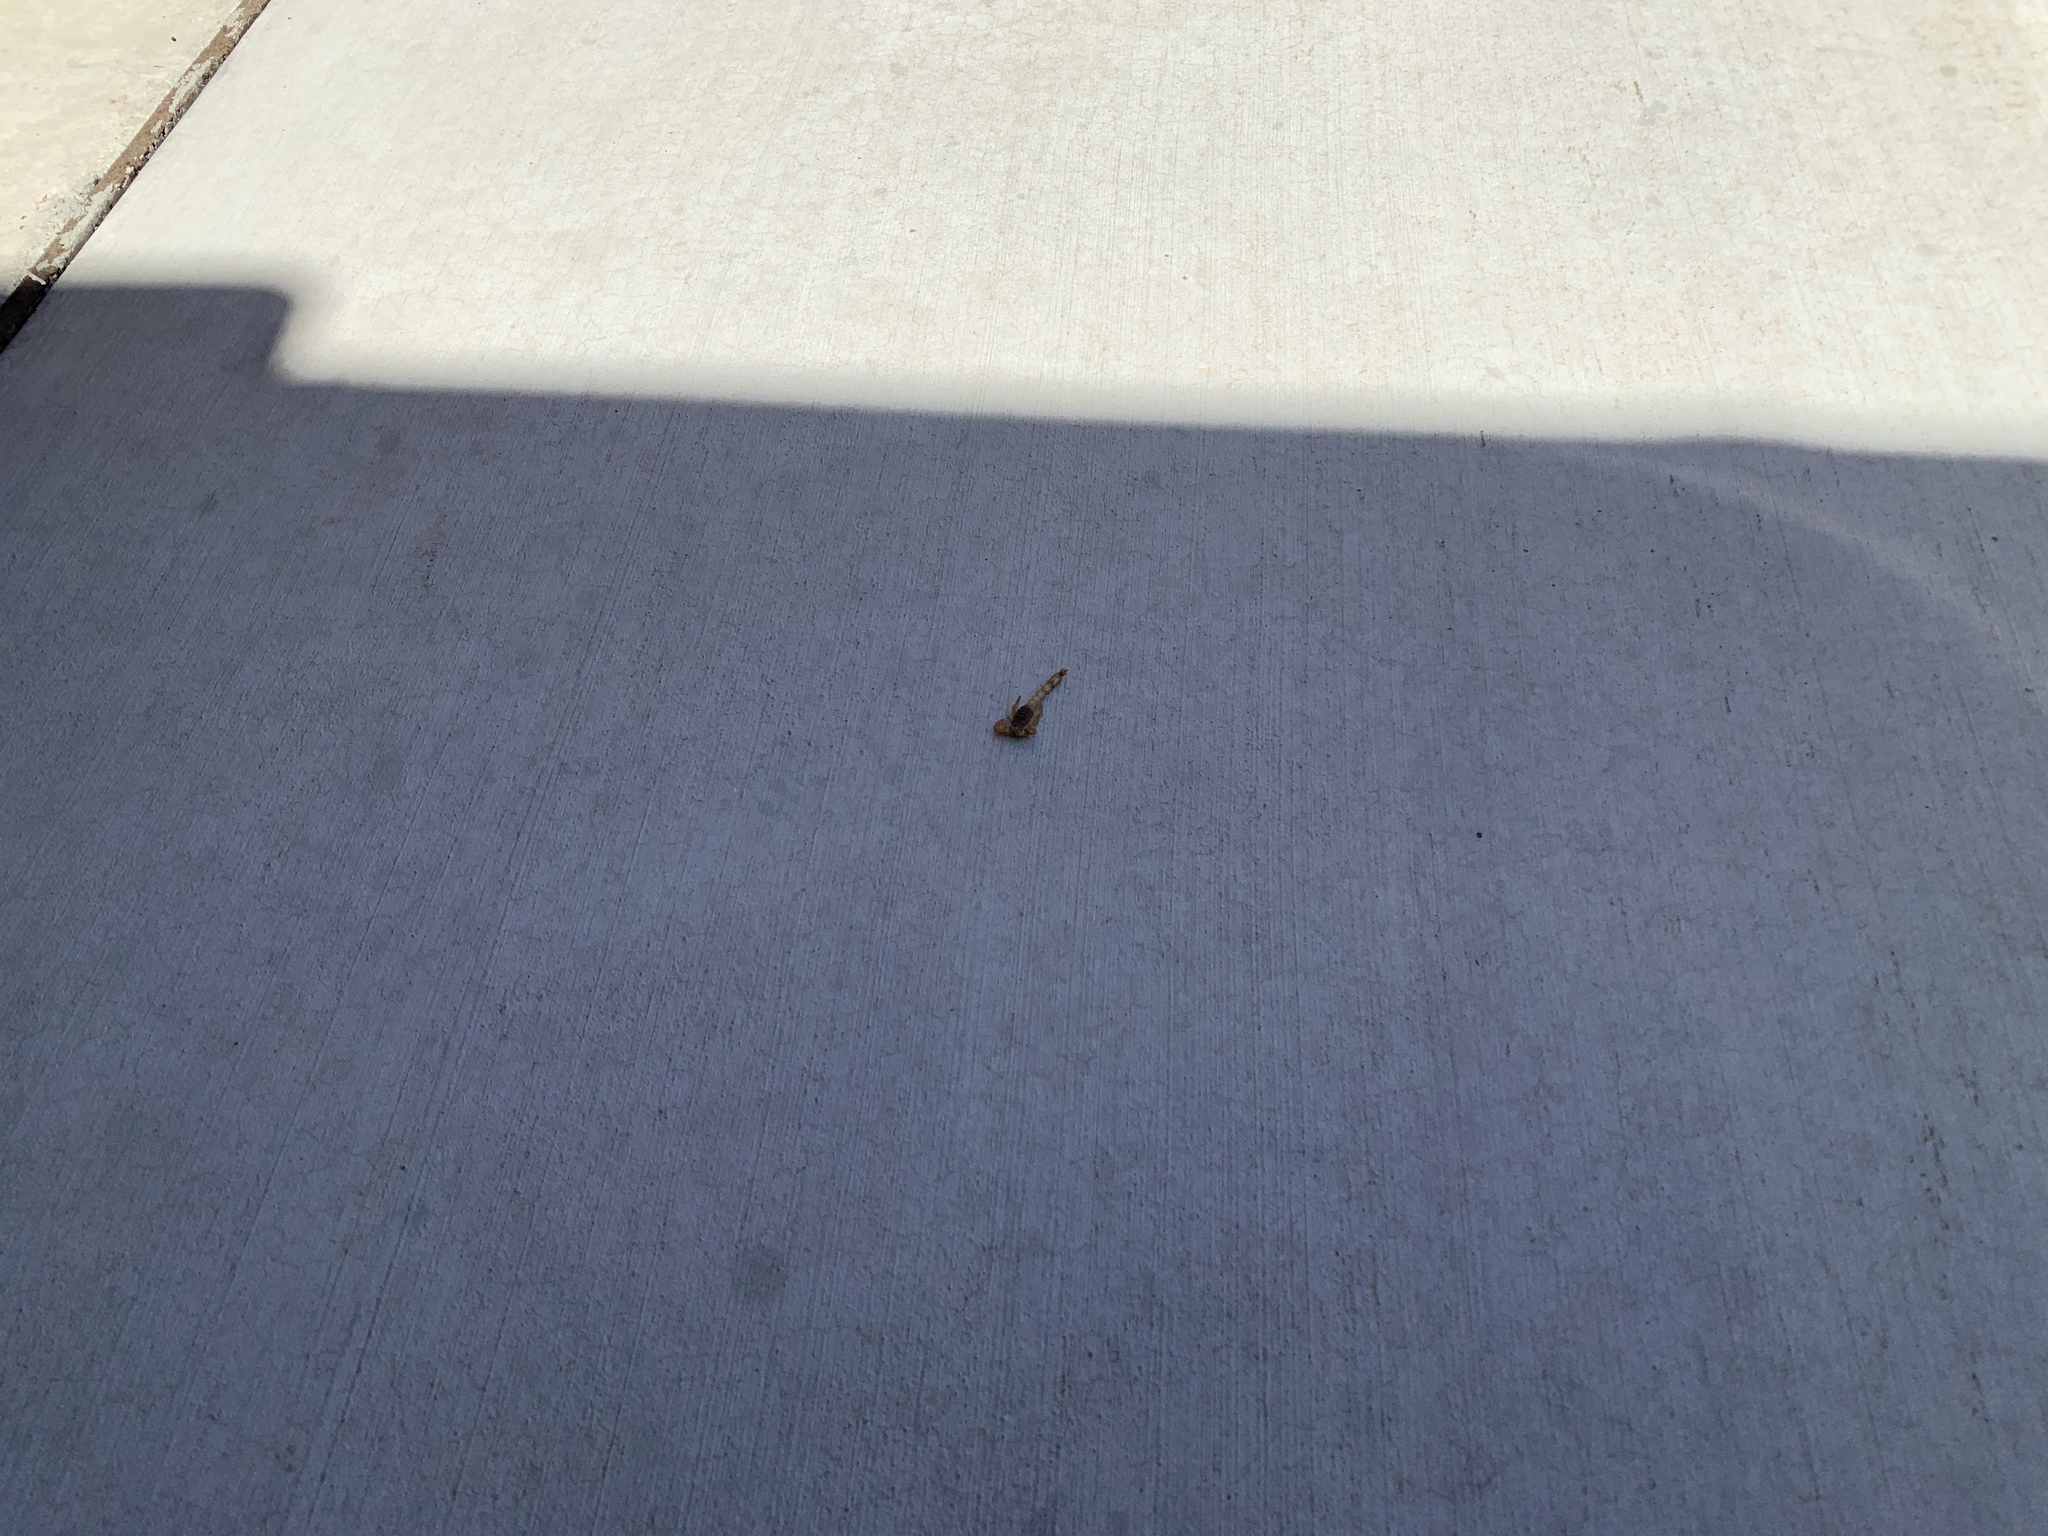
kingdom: Animalia
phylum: Arthropoda
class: Arachnida
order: Scorpiones
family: Vaejovidae
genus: Paravaejovis
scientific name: Paravaejovis spinigerus
